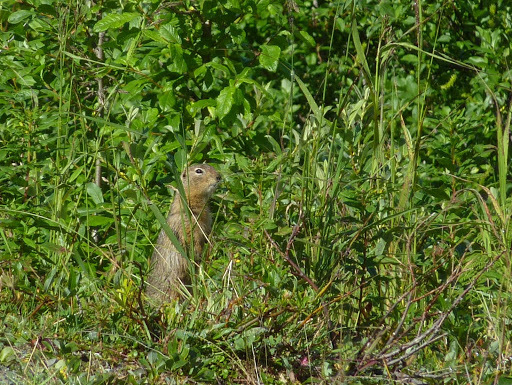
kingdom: Animalia
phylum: Chordata
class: Mammalia
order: Rodentia
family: Sciuridae
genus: Urocitellus
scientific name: Urocitellus parryii
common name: Arctic ground squirrel
